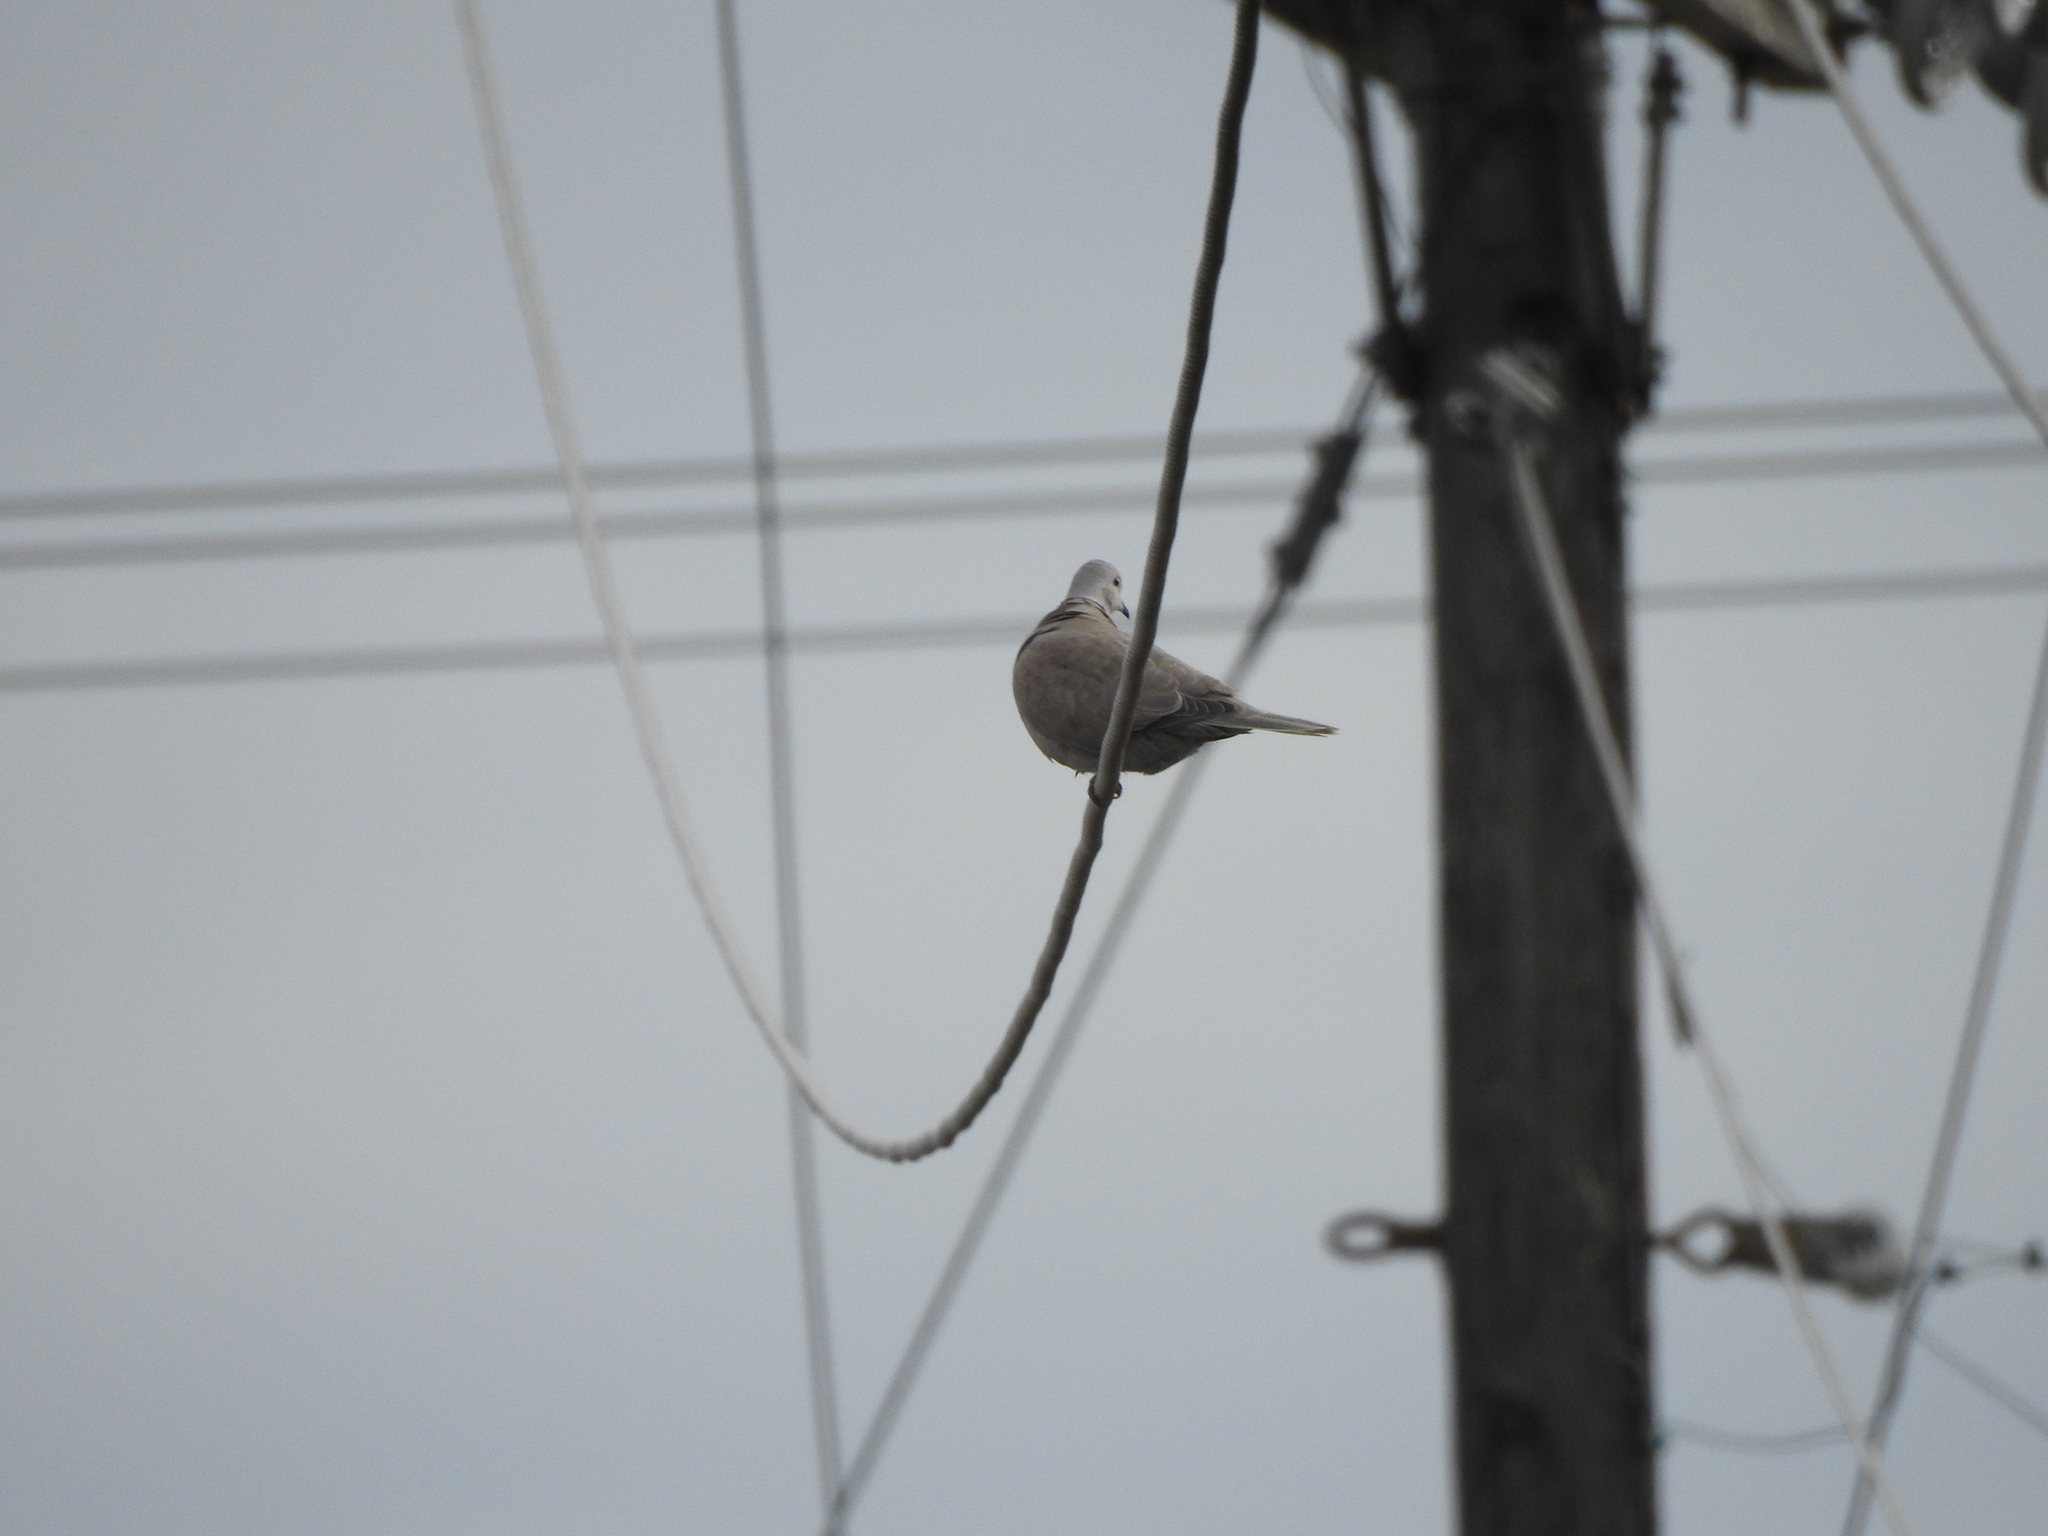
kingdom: Animalia
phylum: Chordata
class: Aves
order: Columbiformes
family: Columbidae
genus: Streptopelia
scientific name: Streptopelia decaocto
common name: Eurasian collared dove
